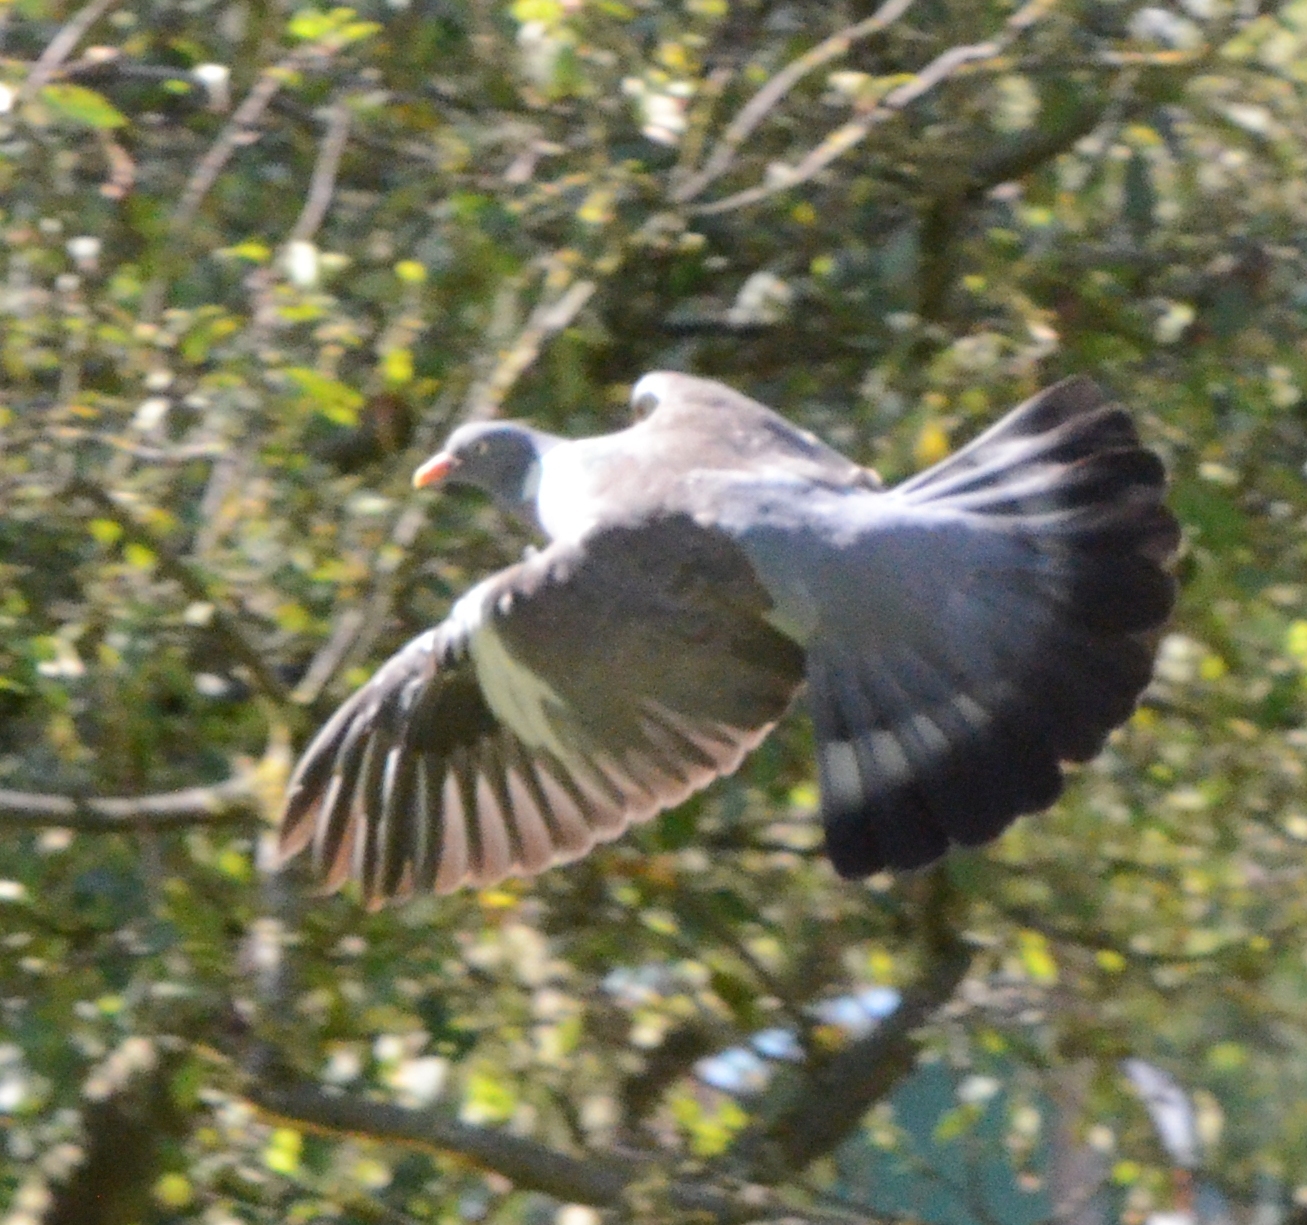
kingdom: Animalia
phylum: Chordata
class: Aves
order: Columbiformes
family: Columbidae
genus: Columba
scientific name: Columba palumbus
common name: Common wood pigeon
